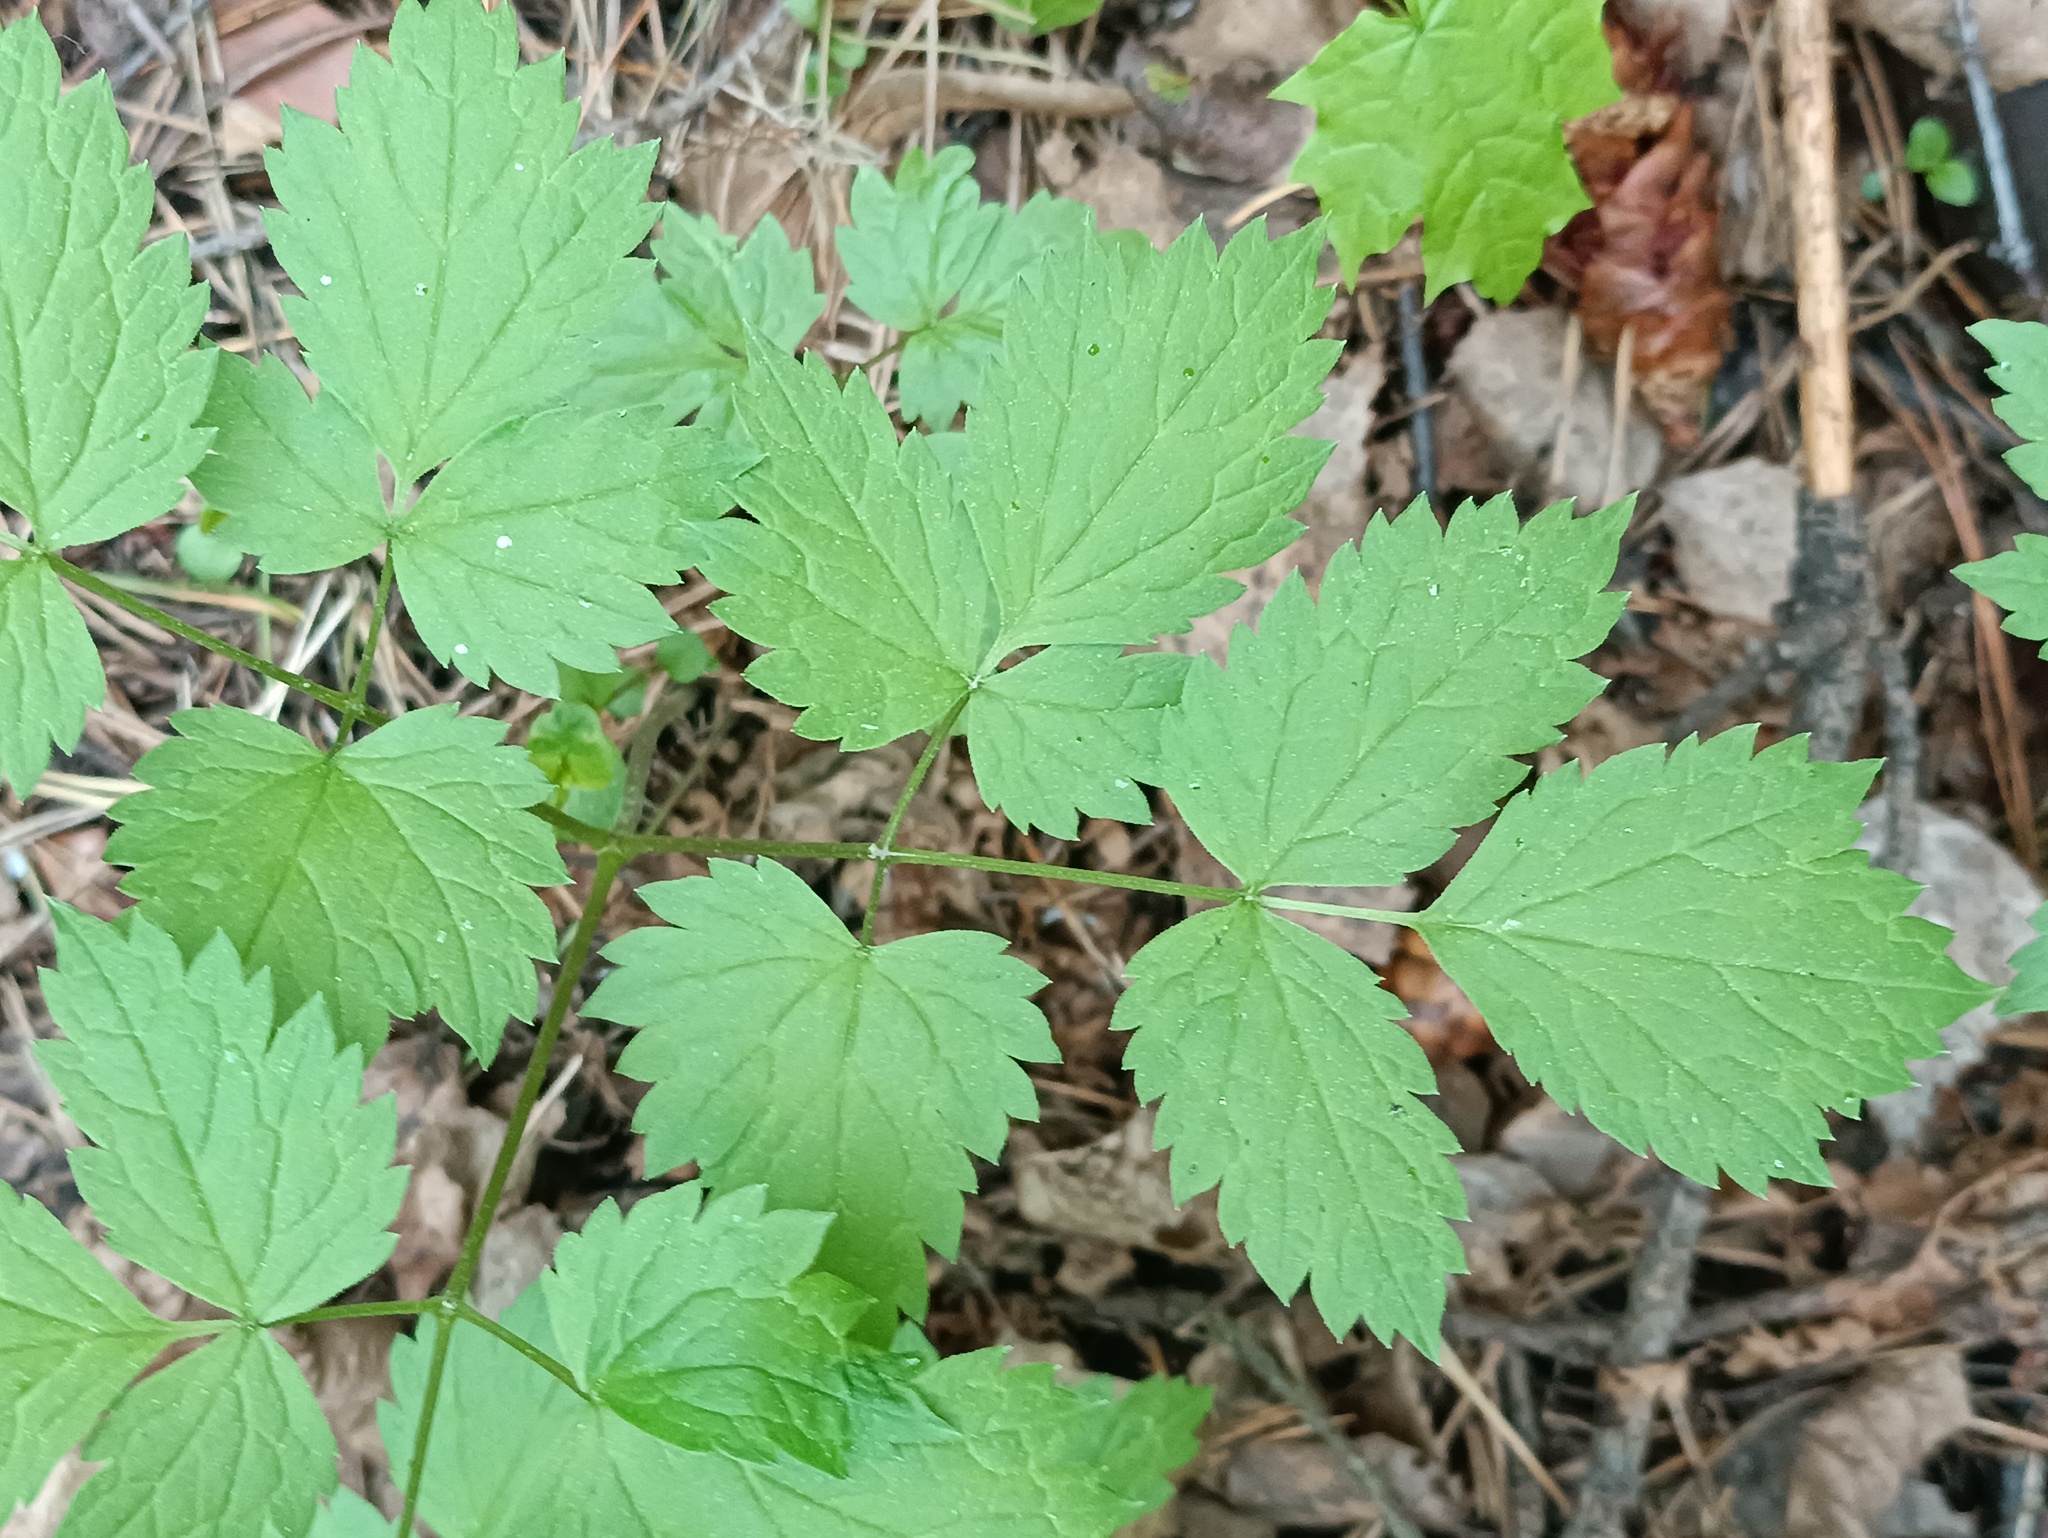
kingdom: Plantae
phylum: Tracheophyta
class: Magnoliopsida
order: Ranunculales
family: Ranunculaceae
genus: Actaea
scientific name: Actaea spicata
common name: Baneberry
